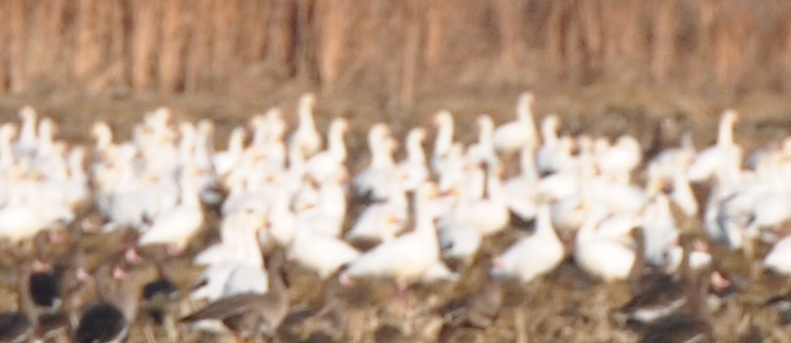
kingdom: Animalia
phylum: Chordata
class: Aves
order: Anseriformes
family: Anatidae
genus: Anser
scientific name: Anser caerulescens
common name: Snow goose
